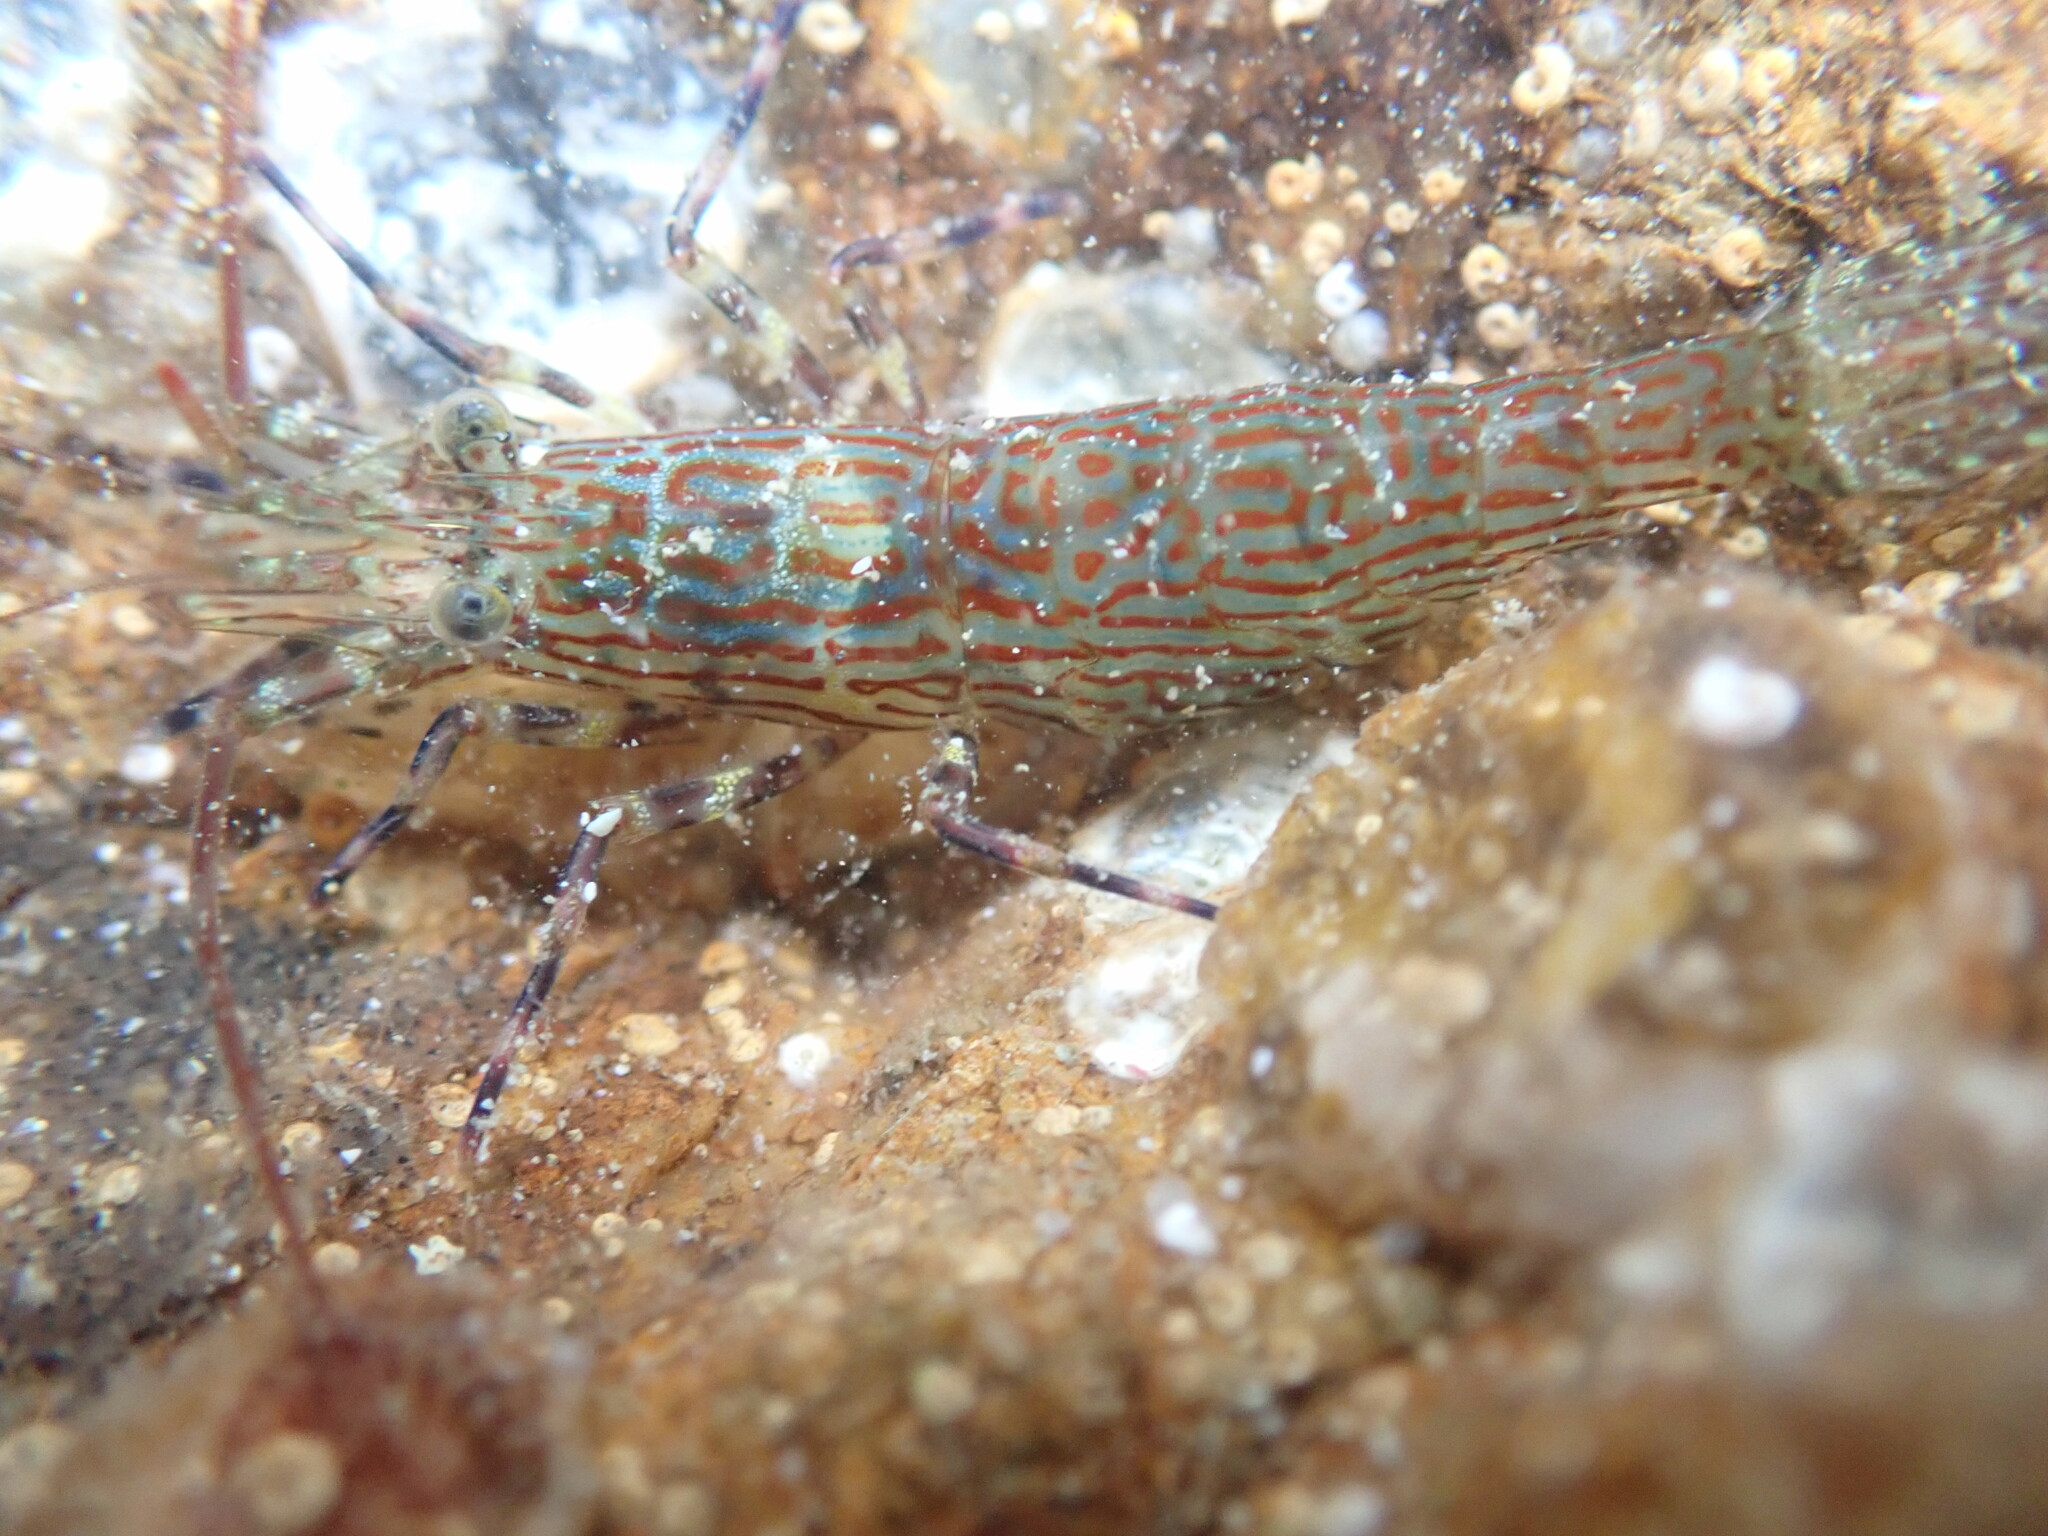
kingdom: Animalia
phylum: Arthropoda
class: Malacostraca
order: Decapoda
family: Hippolytidae
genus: Alope
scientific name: Alope spinifrons
